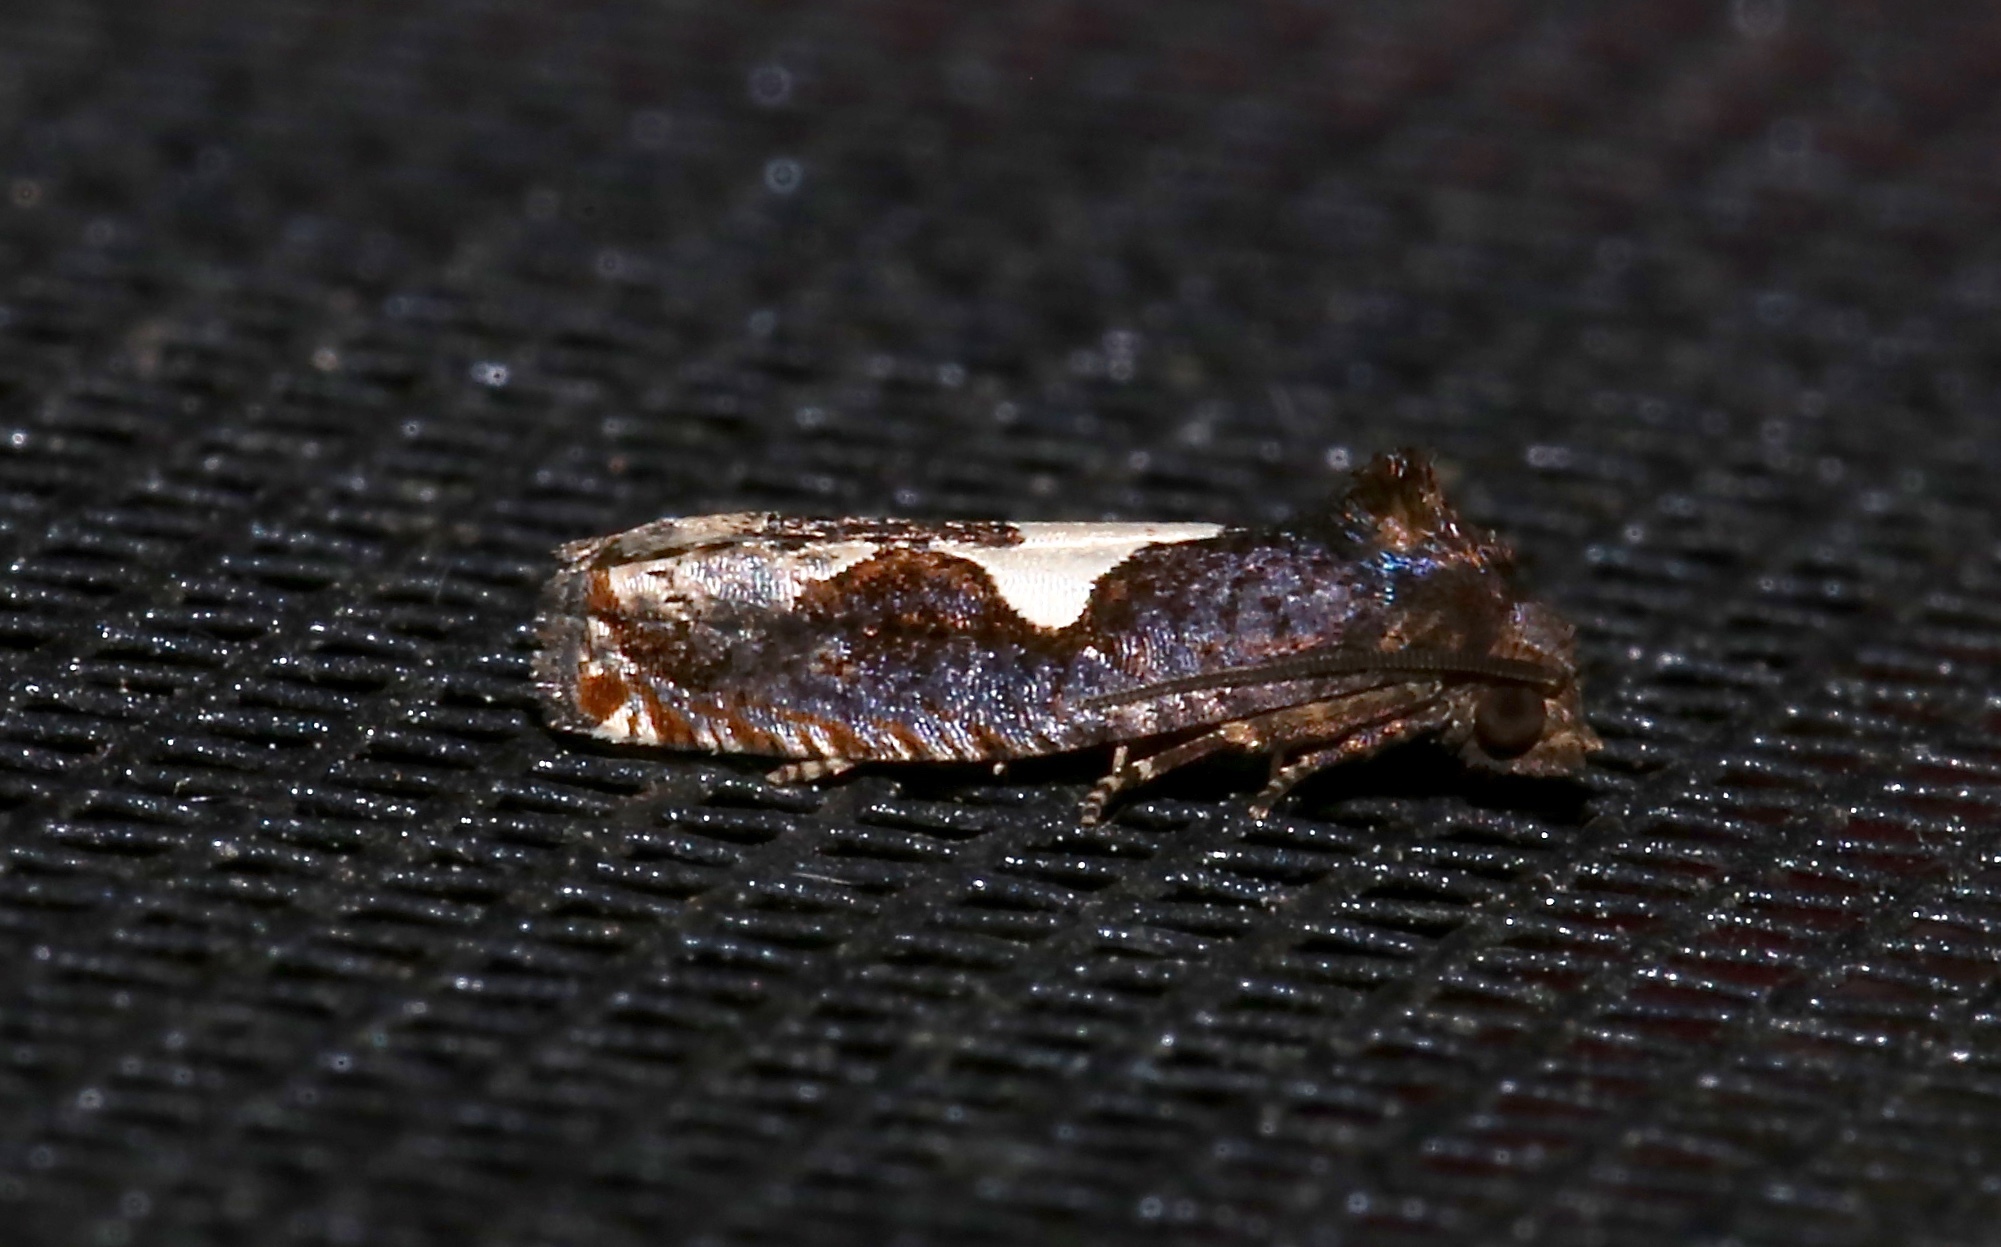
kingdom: Animalia
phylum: Arthropoda
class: Insecta
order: Lepidoptera
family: Tortricidae
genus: Epiblema
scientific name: Epiblema otiosana
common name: Bidens borer moth
